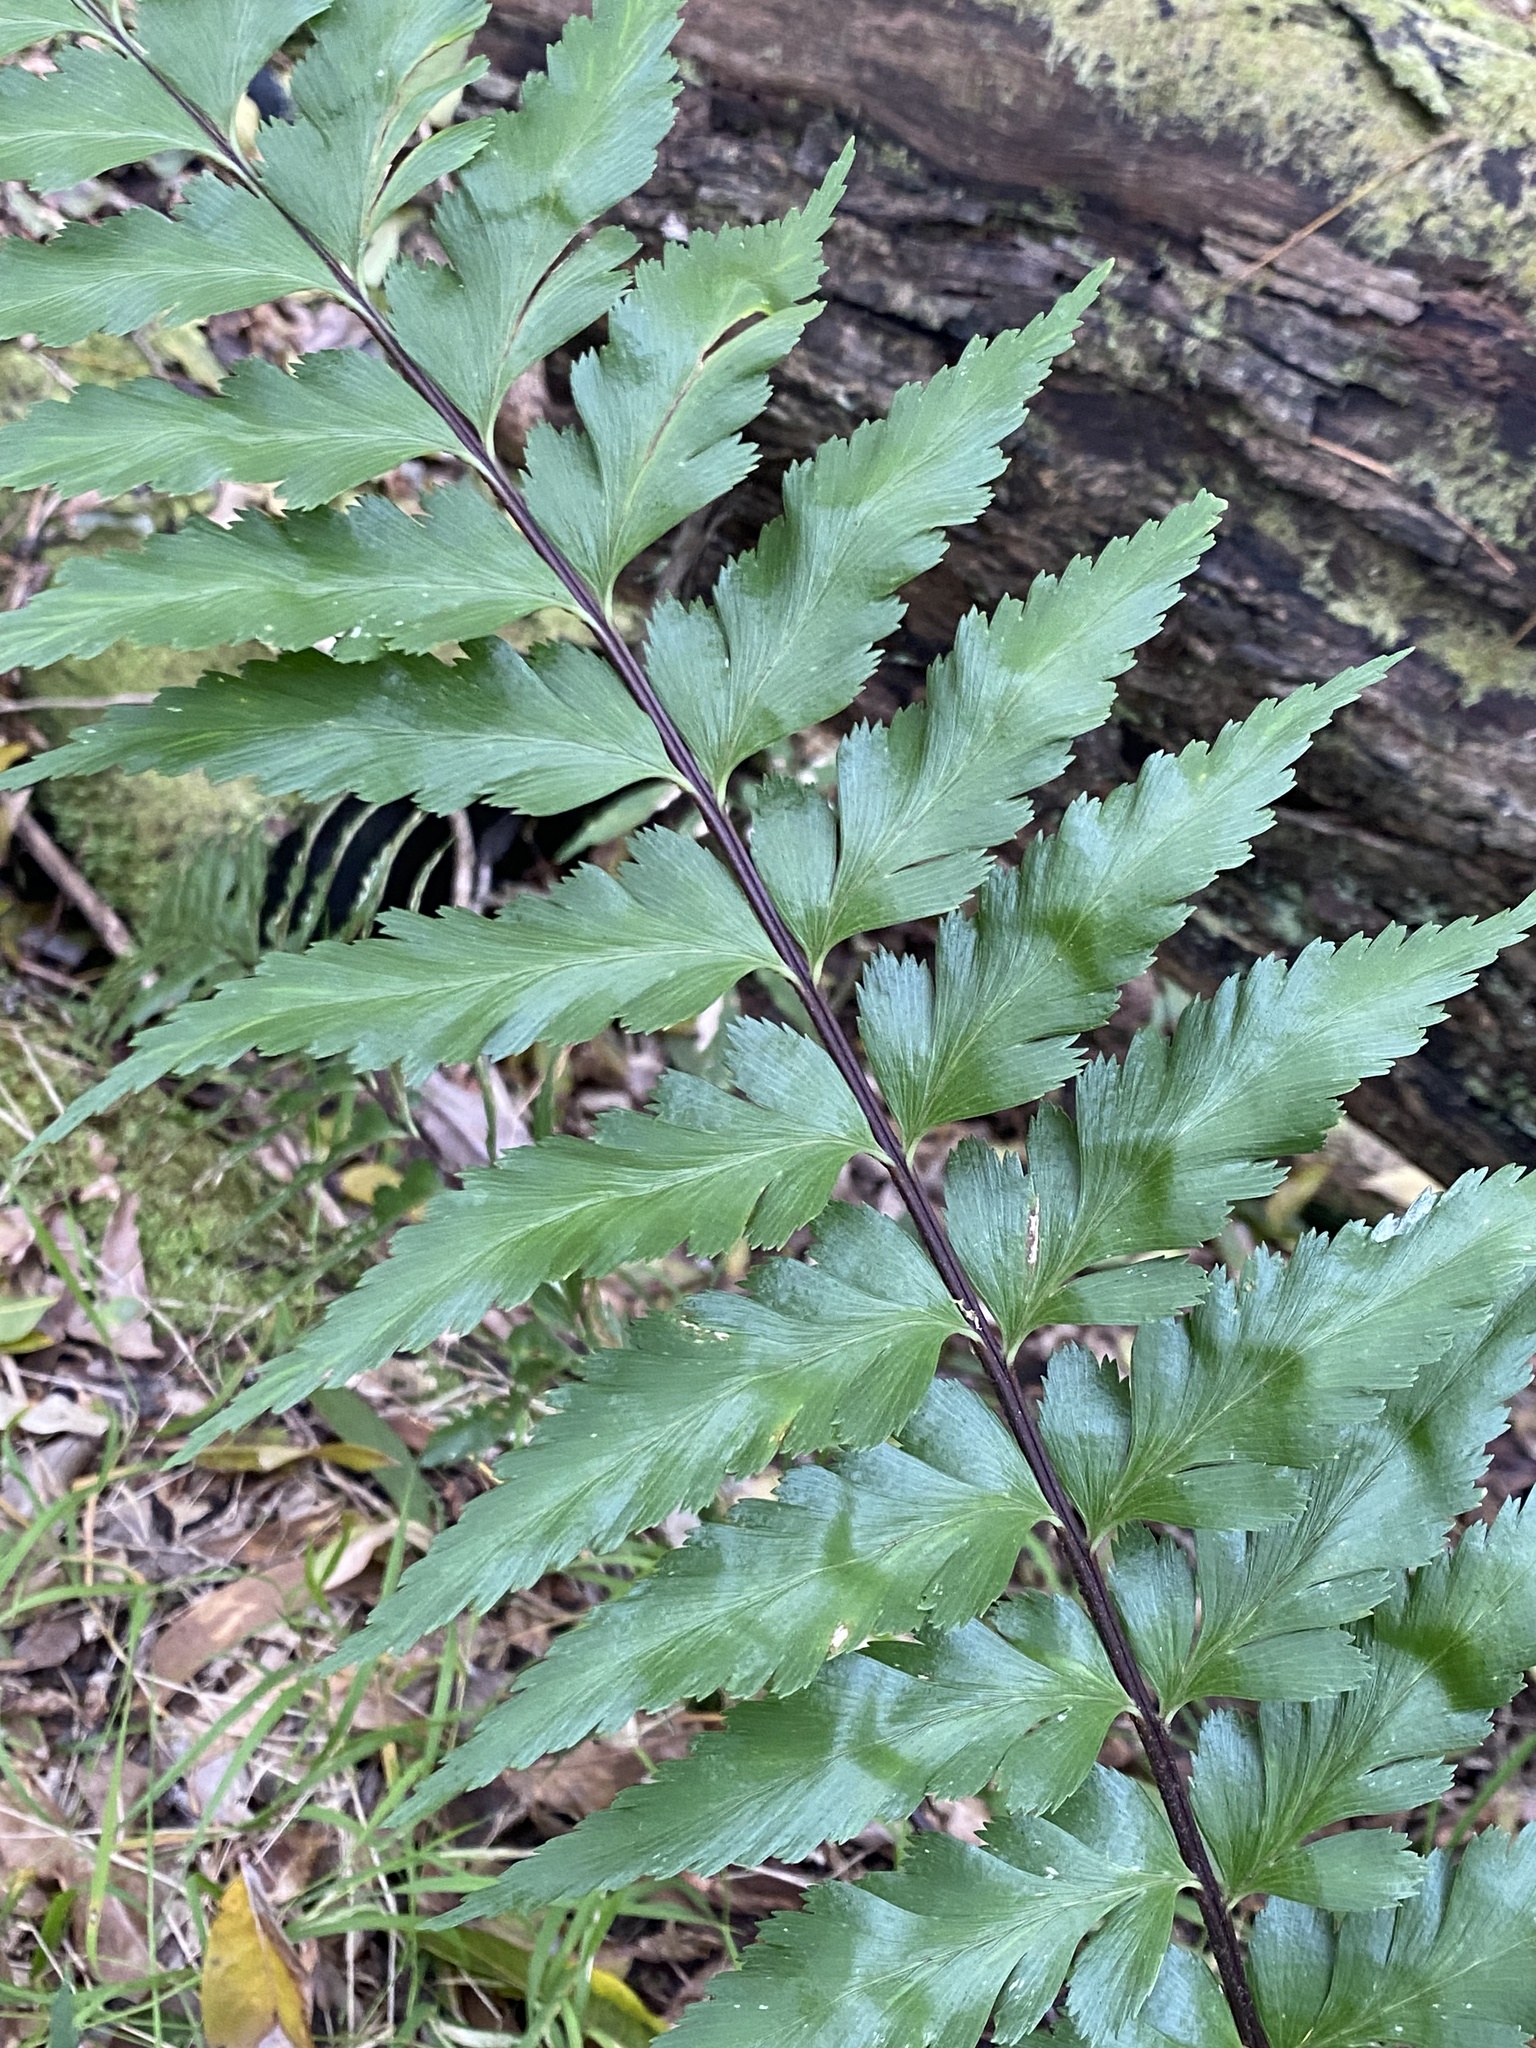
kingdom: Plantae
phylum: Tracheophyta
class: Polypodiopsida
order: Polypodiales
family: Aspleniaceae
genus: Asplenium
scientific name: Asplenium polyodon
